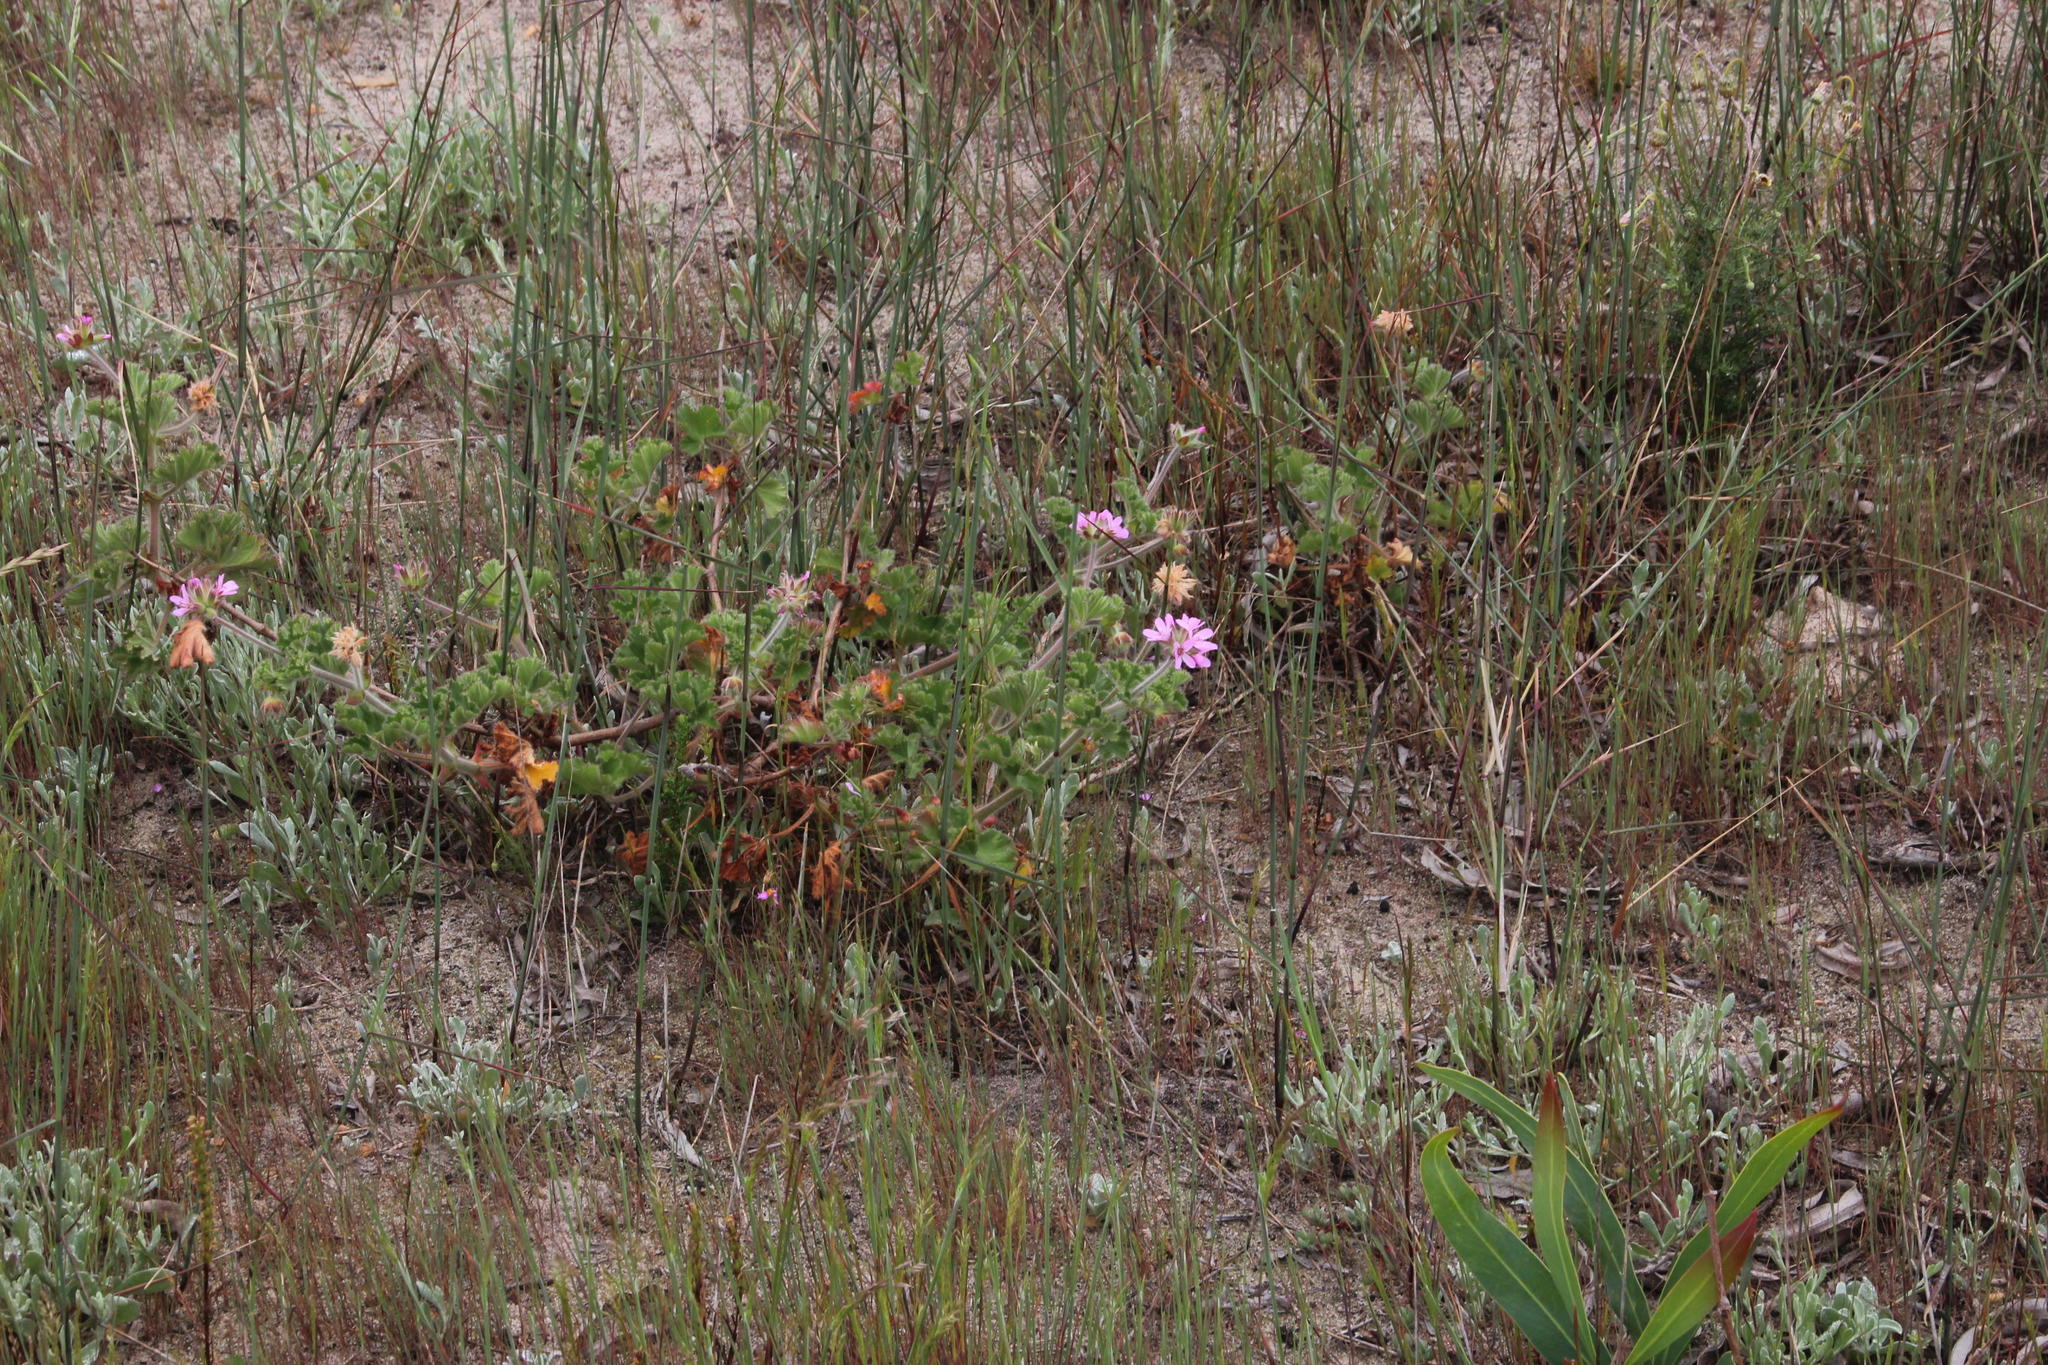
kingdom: Plantae
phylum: Tracheophyta
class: Magnoliopsida
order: Geraniales
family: Geraniaceae
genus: Pelargonium
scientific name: Pelargonium capitatum
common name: Rose scented geranium
